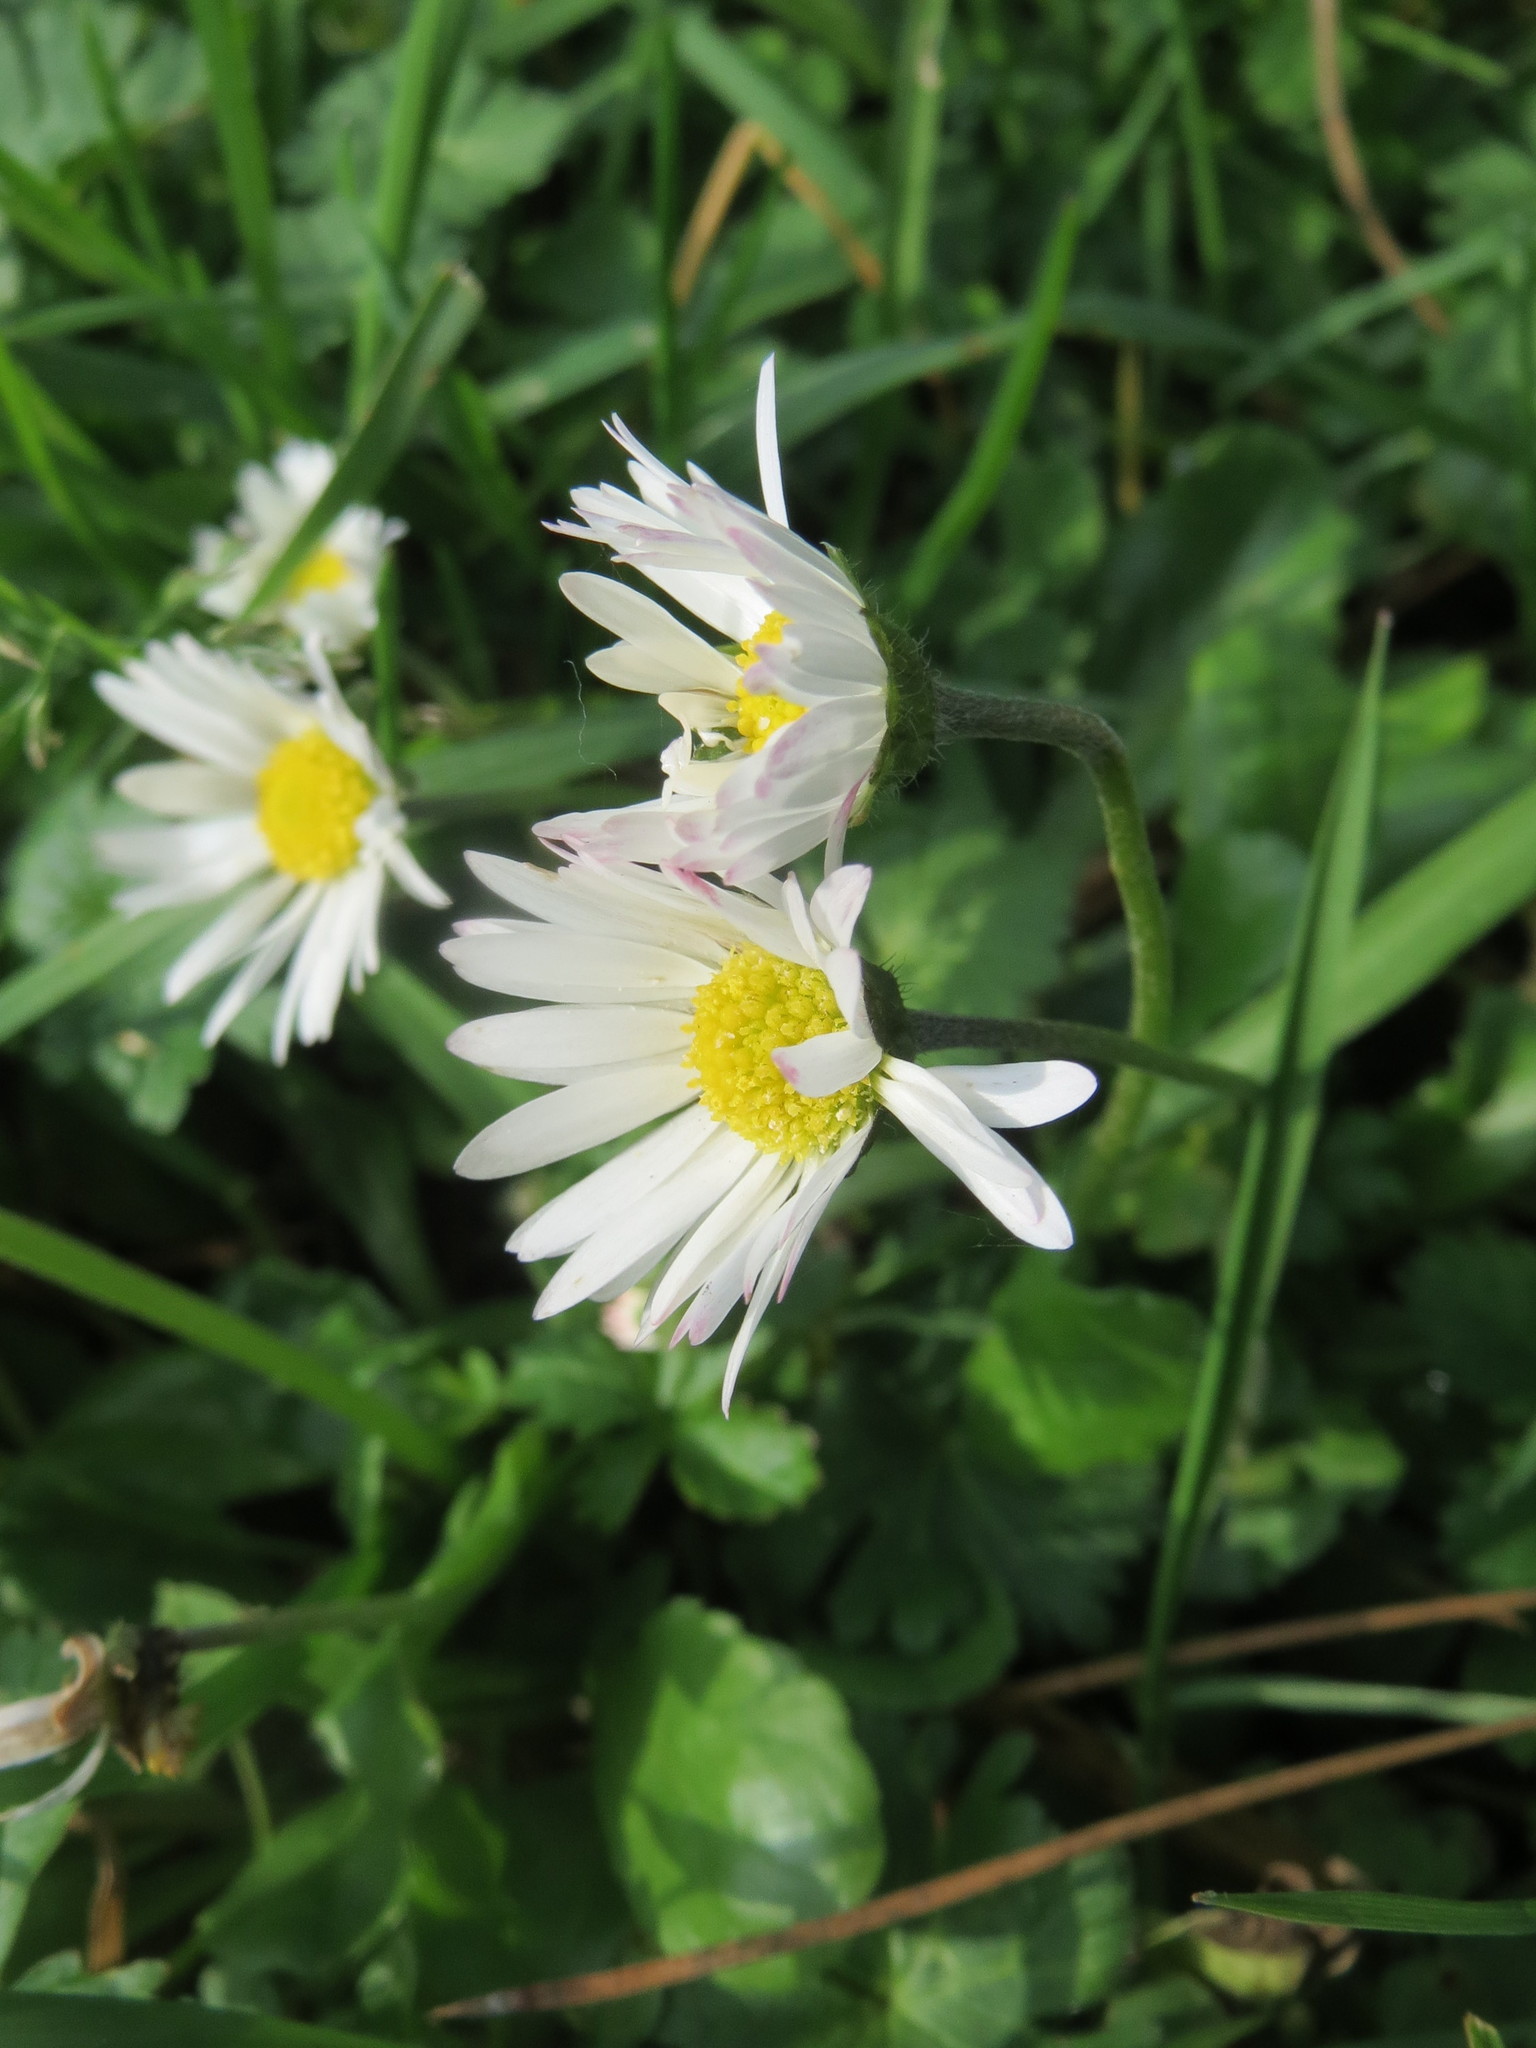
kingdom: Plantae
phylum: Tracheophyta
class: Magnoliopsida
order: Asterales
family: Asteraceae
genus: Bellis
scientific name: Bellis perennis
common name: Lawndaisy
